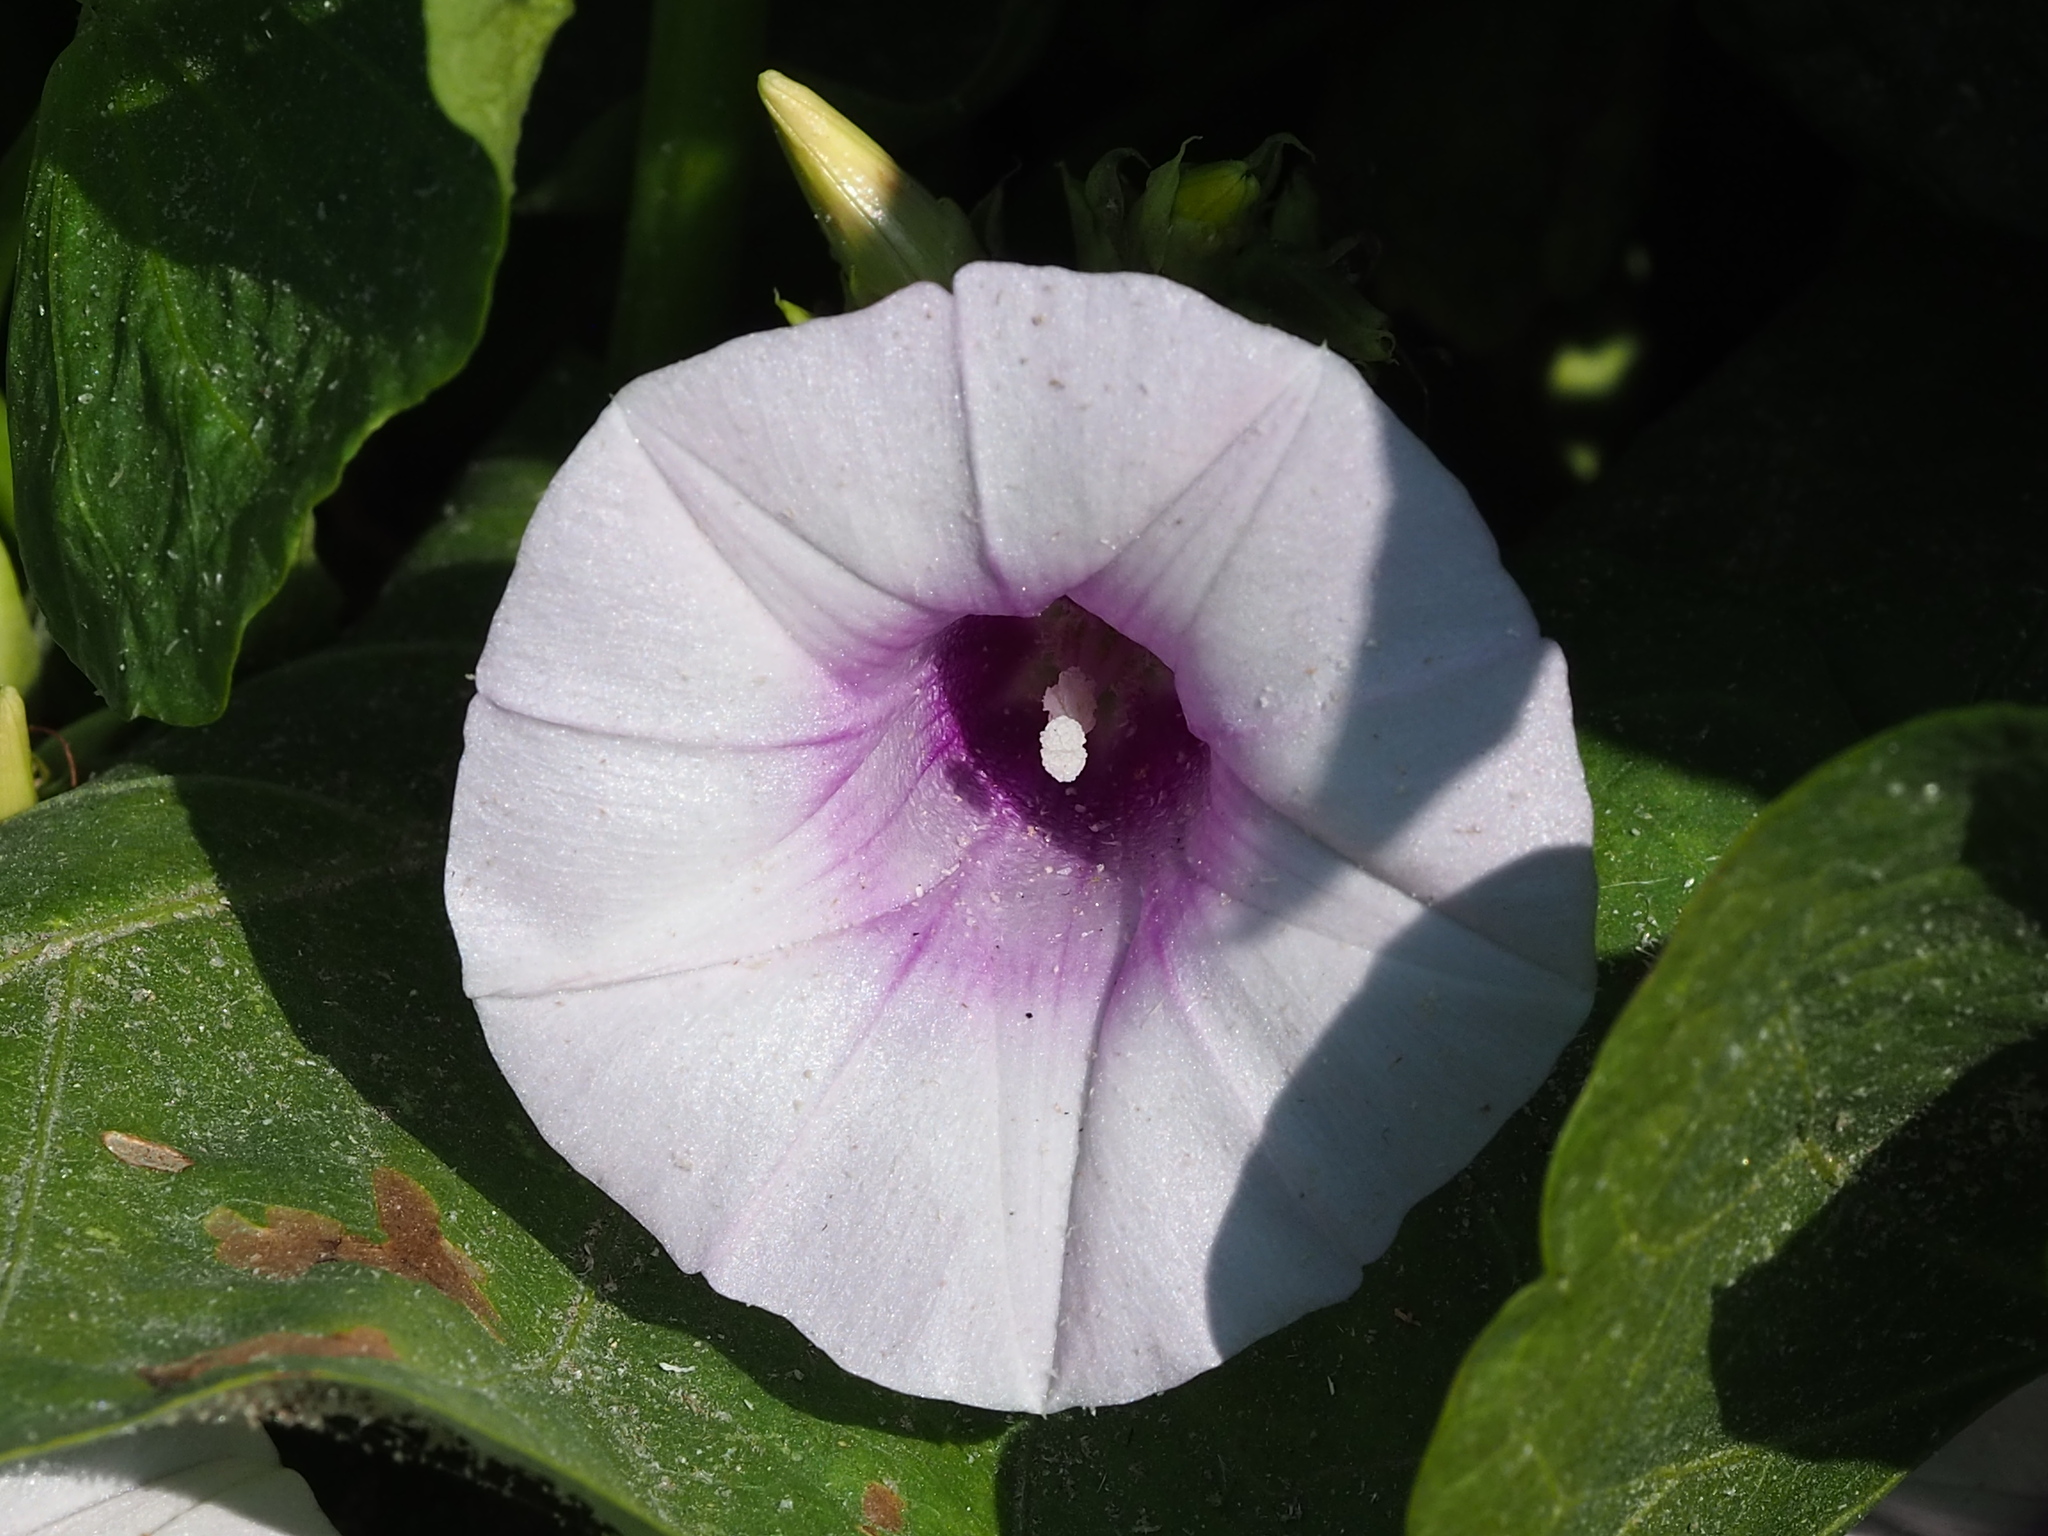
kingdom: Plantae
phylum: Tracheophyta
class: Magnoliopsida
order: Solanales
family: Convolvulaceae
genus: Ipomoea
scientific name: Ipomoea batatas
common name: Sweet-potato
